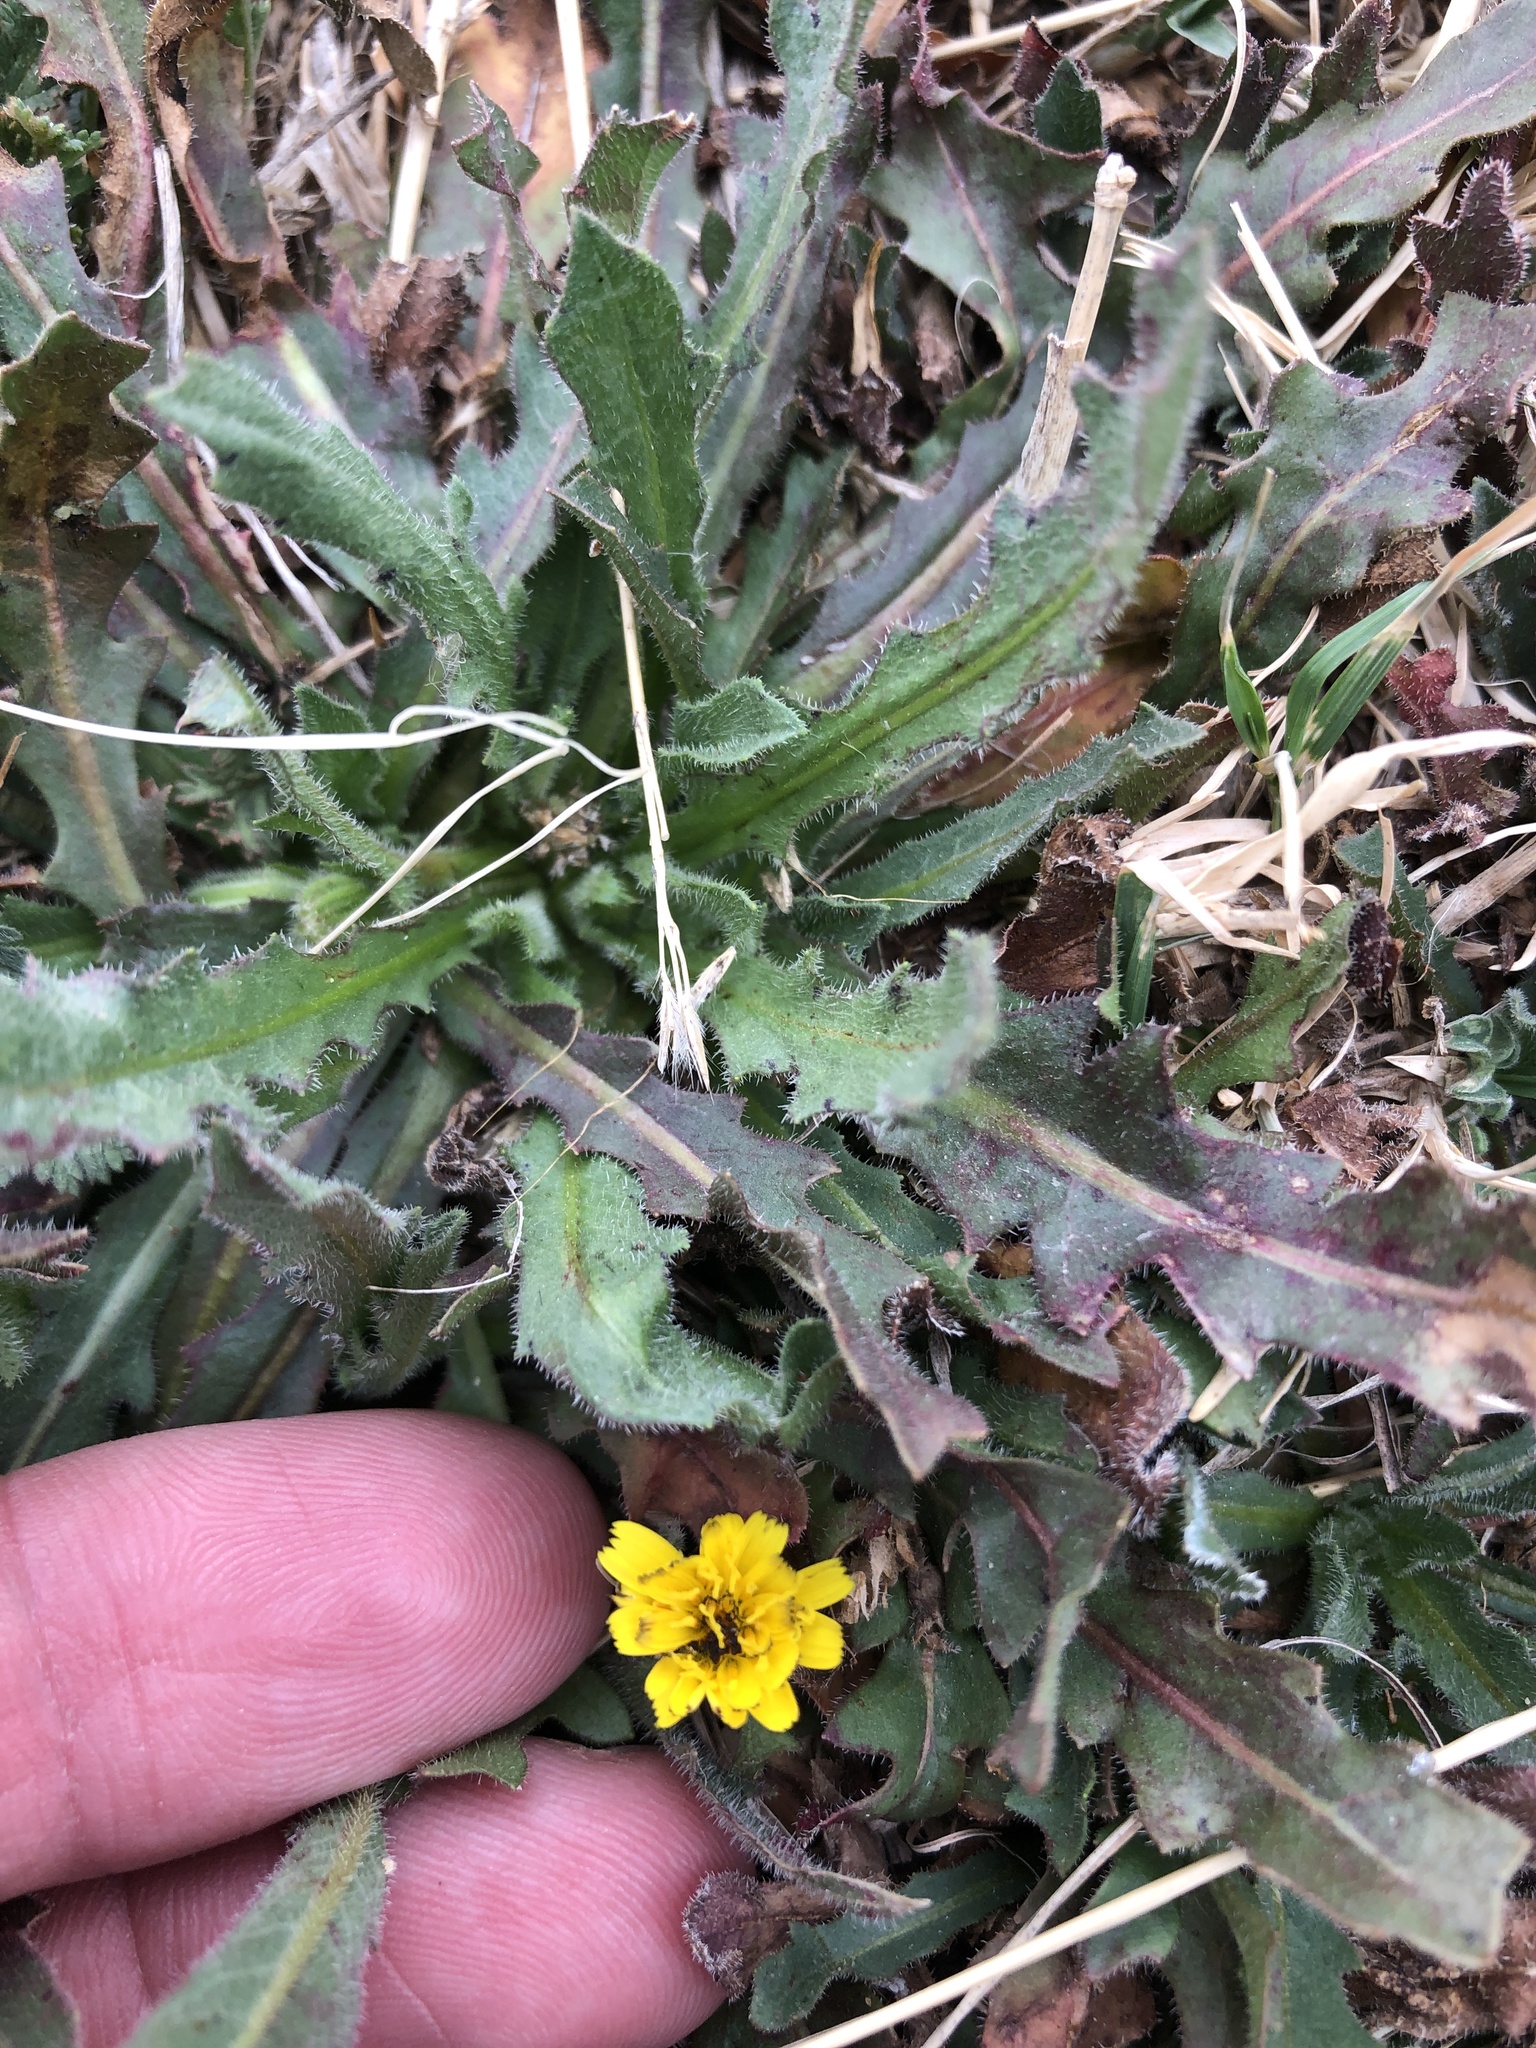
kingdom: Plantae
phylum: Tracheophyta
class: Magnoliopsida
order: Asterales
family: Asteraceae
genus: Hedypnois
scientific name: Hedypnois rhagadioloides
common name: Cretan weed
